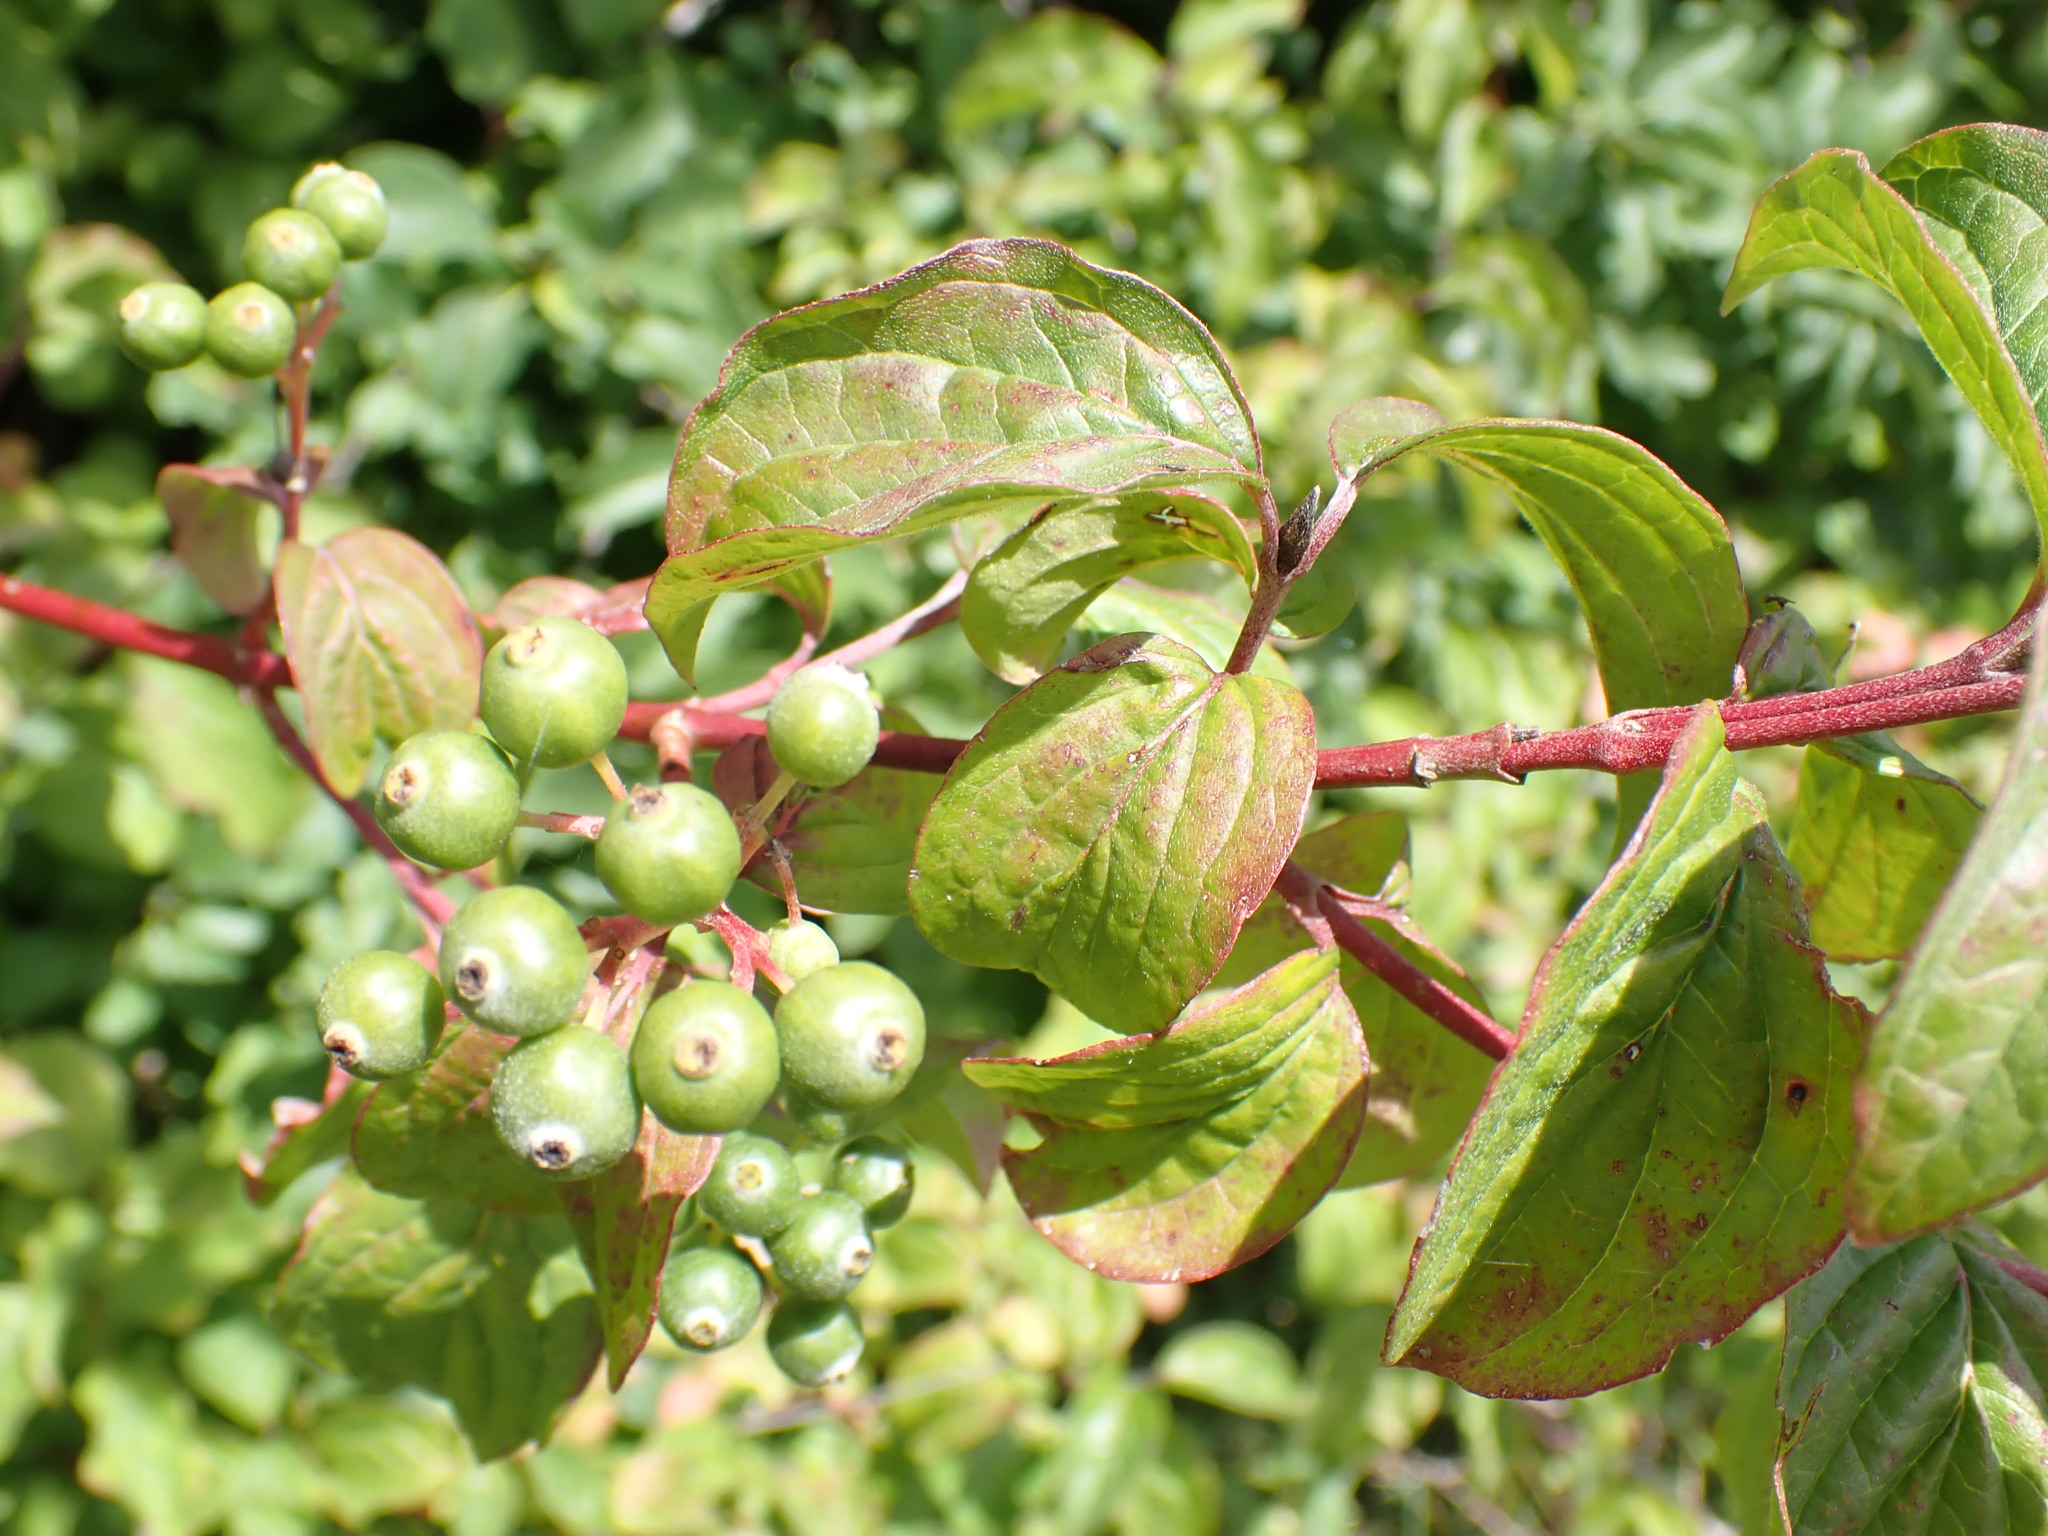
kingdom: Plantae
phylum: Tracheophyta
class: Magnoliopsida
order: Cornales
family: Cornaceae
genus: Cornus
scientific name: Cornus sanguinea
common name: Dogwood
